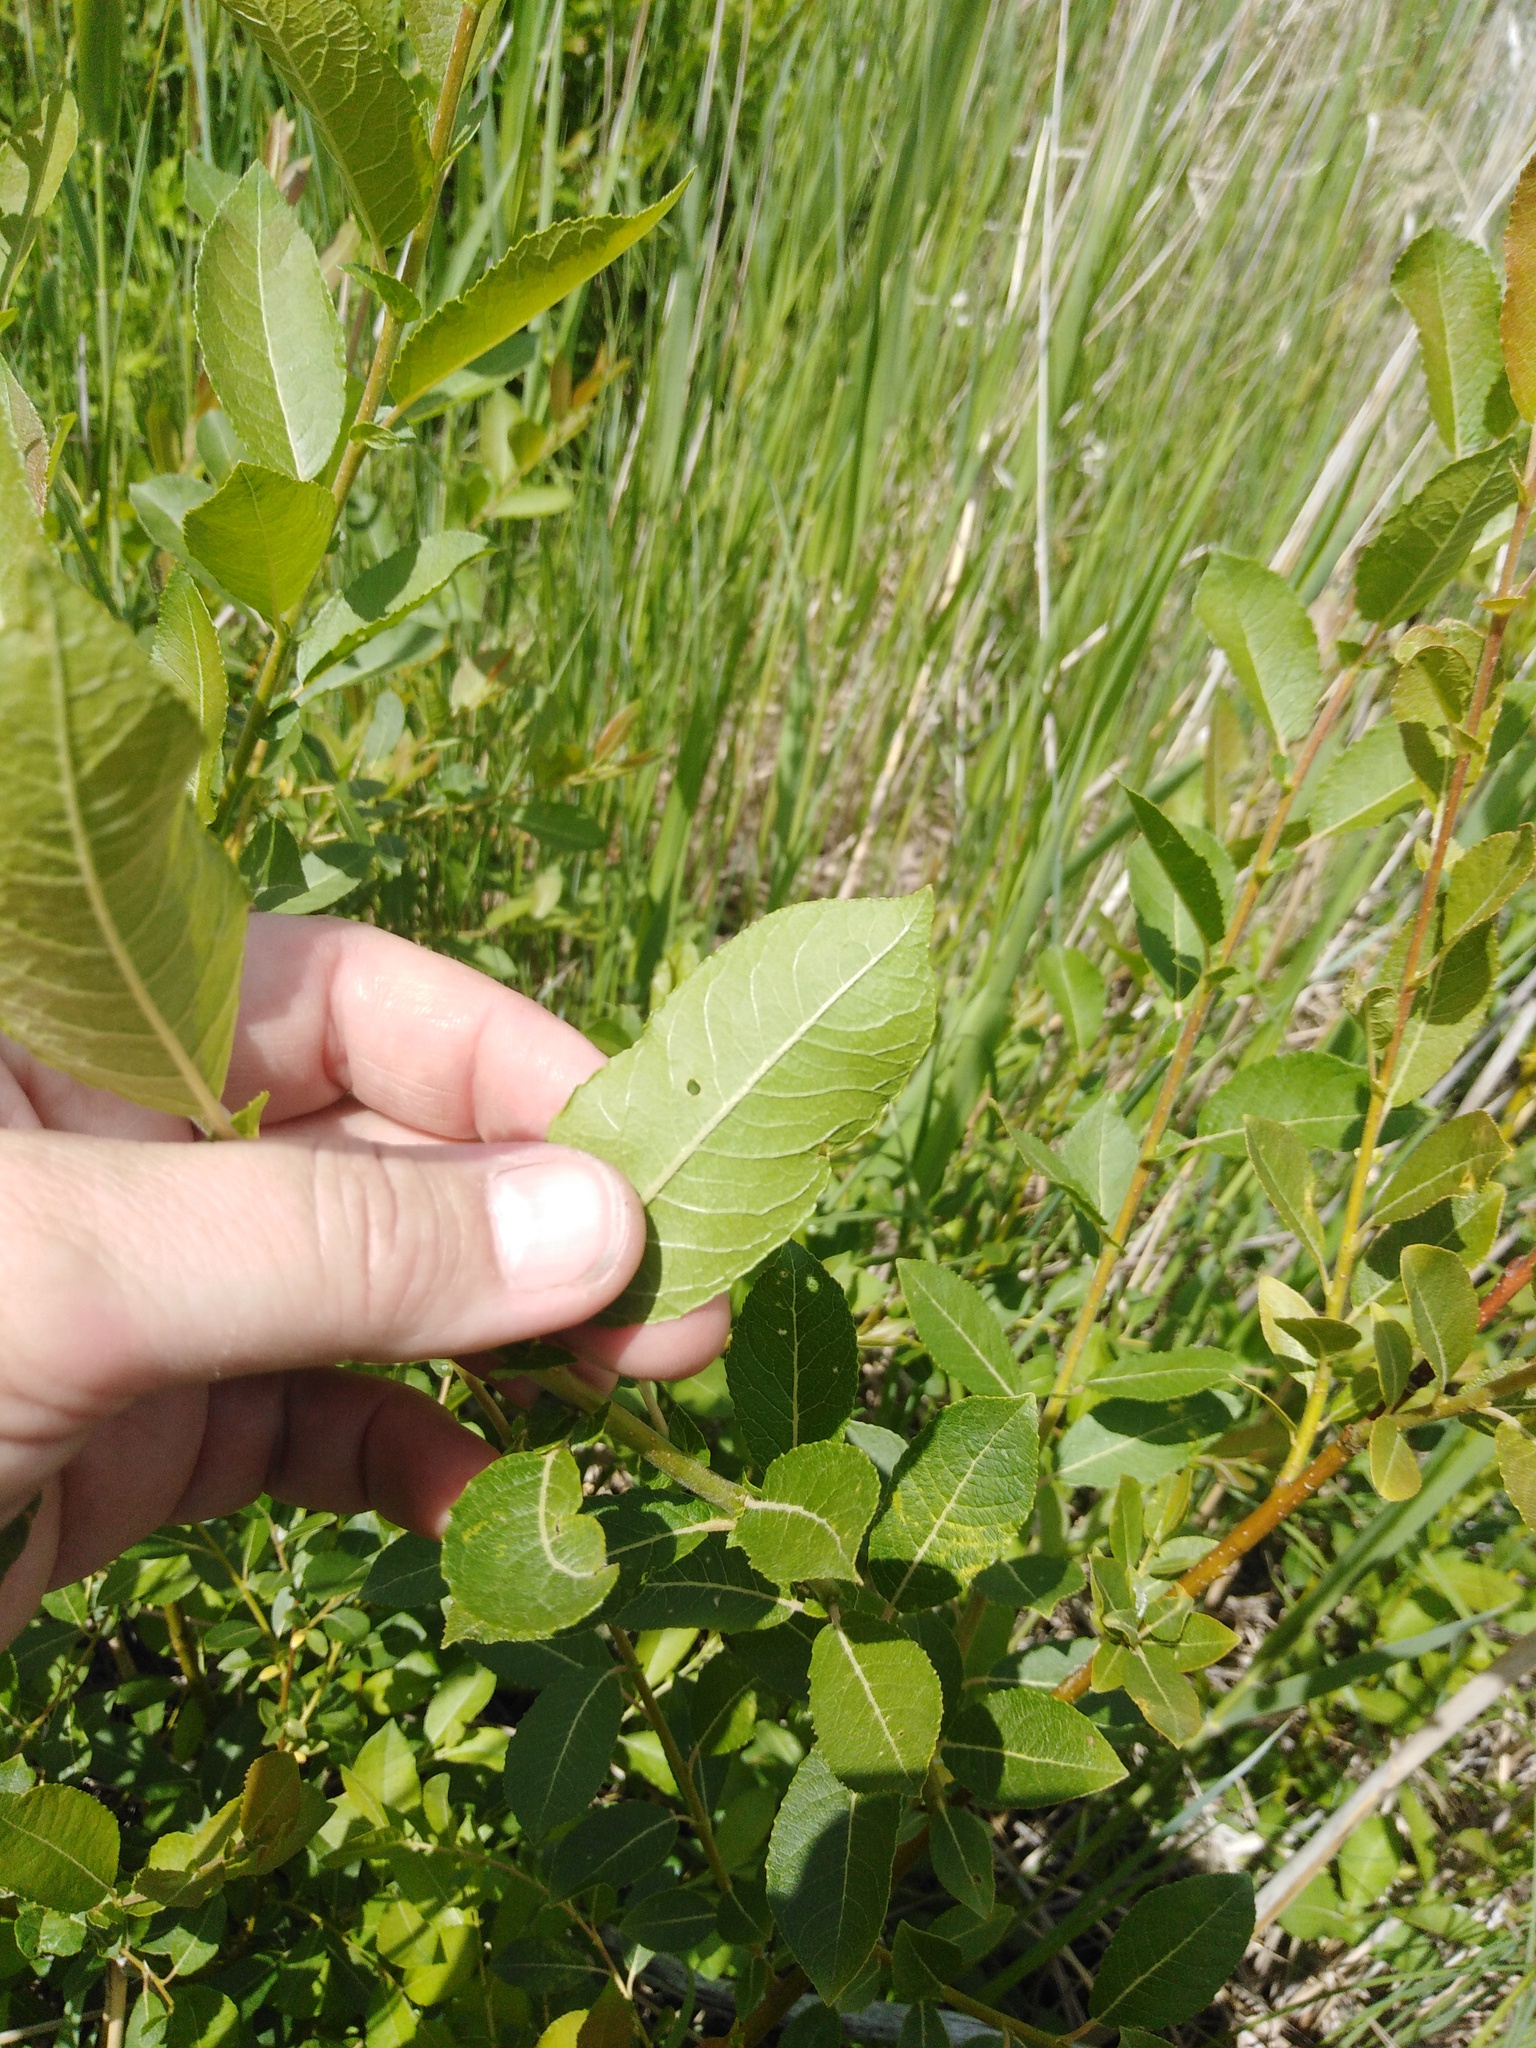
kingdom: Plantae
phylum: Tracheophyta
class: Magnoliopsida
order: Malpighiales
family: Salicaceae
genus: Salix
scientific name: Salix myrsinifolia
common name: Dark-leaved willow
